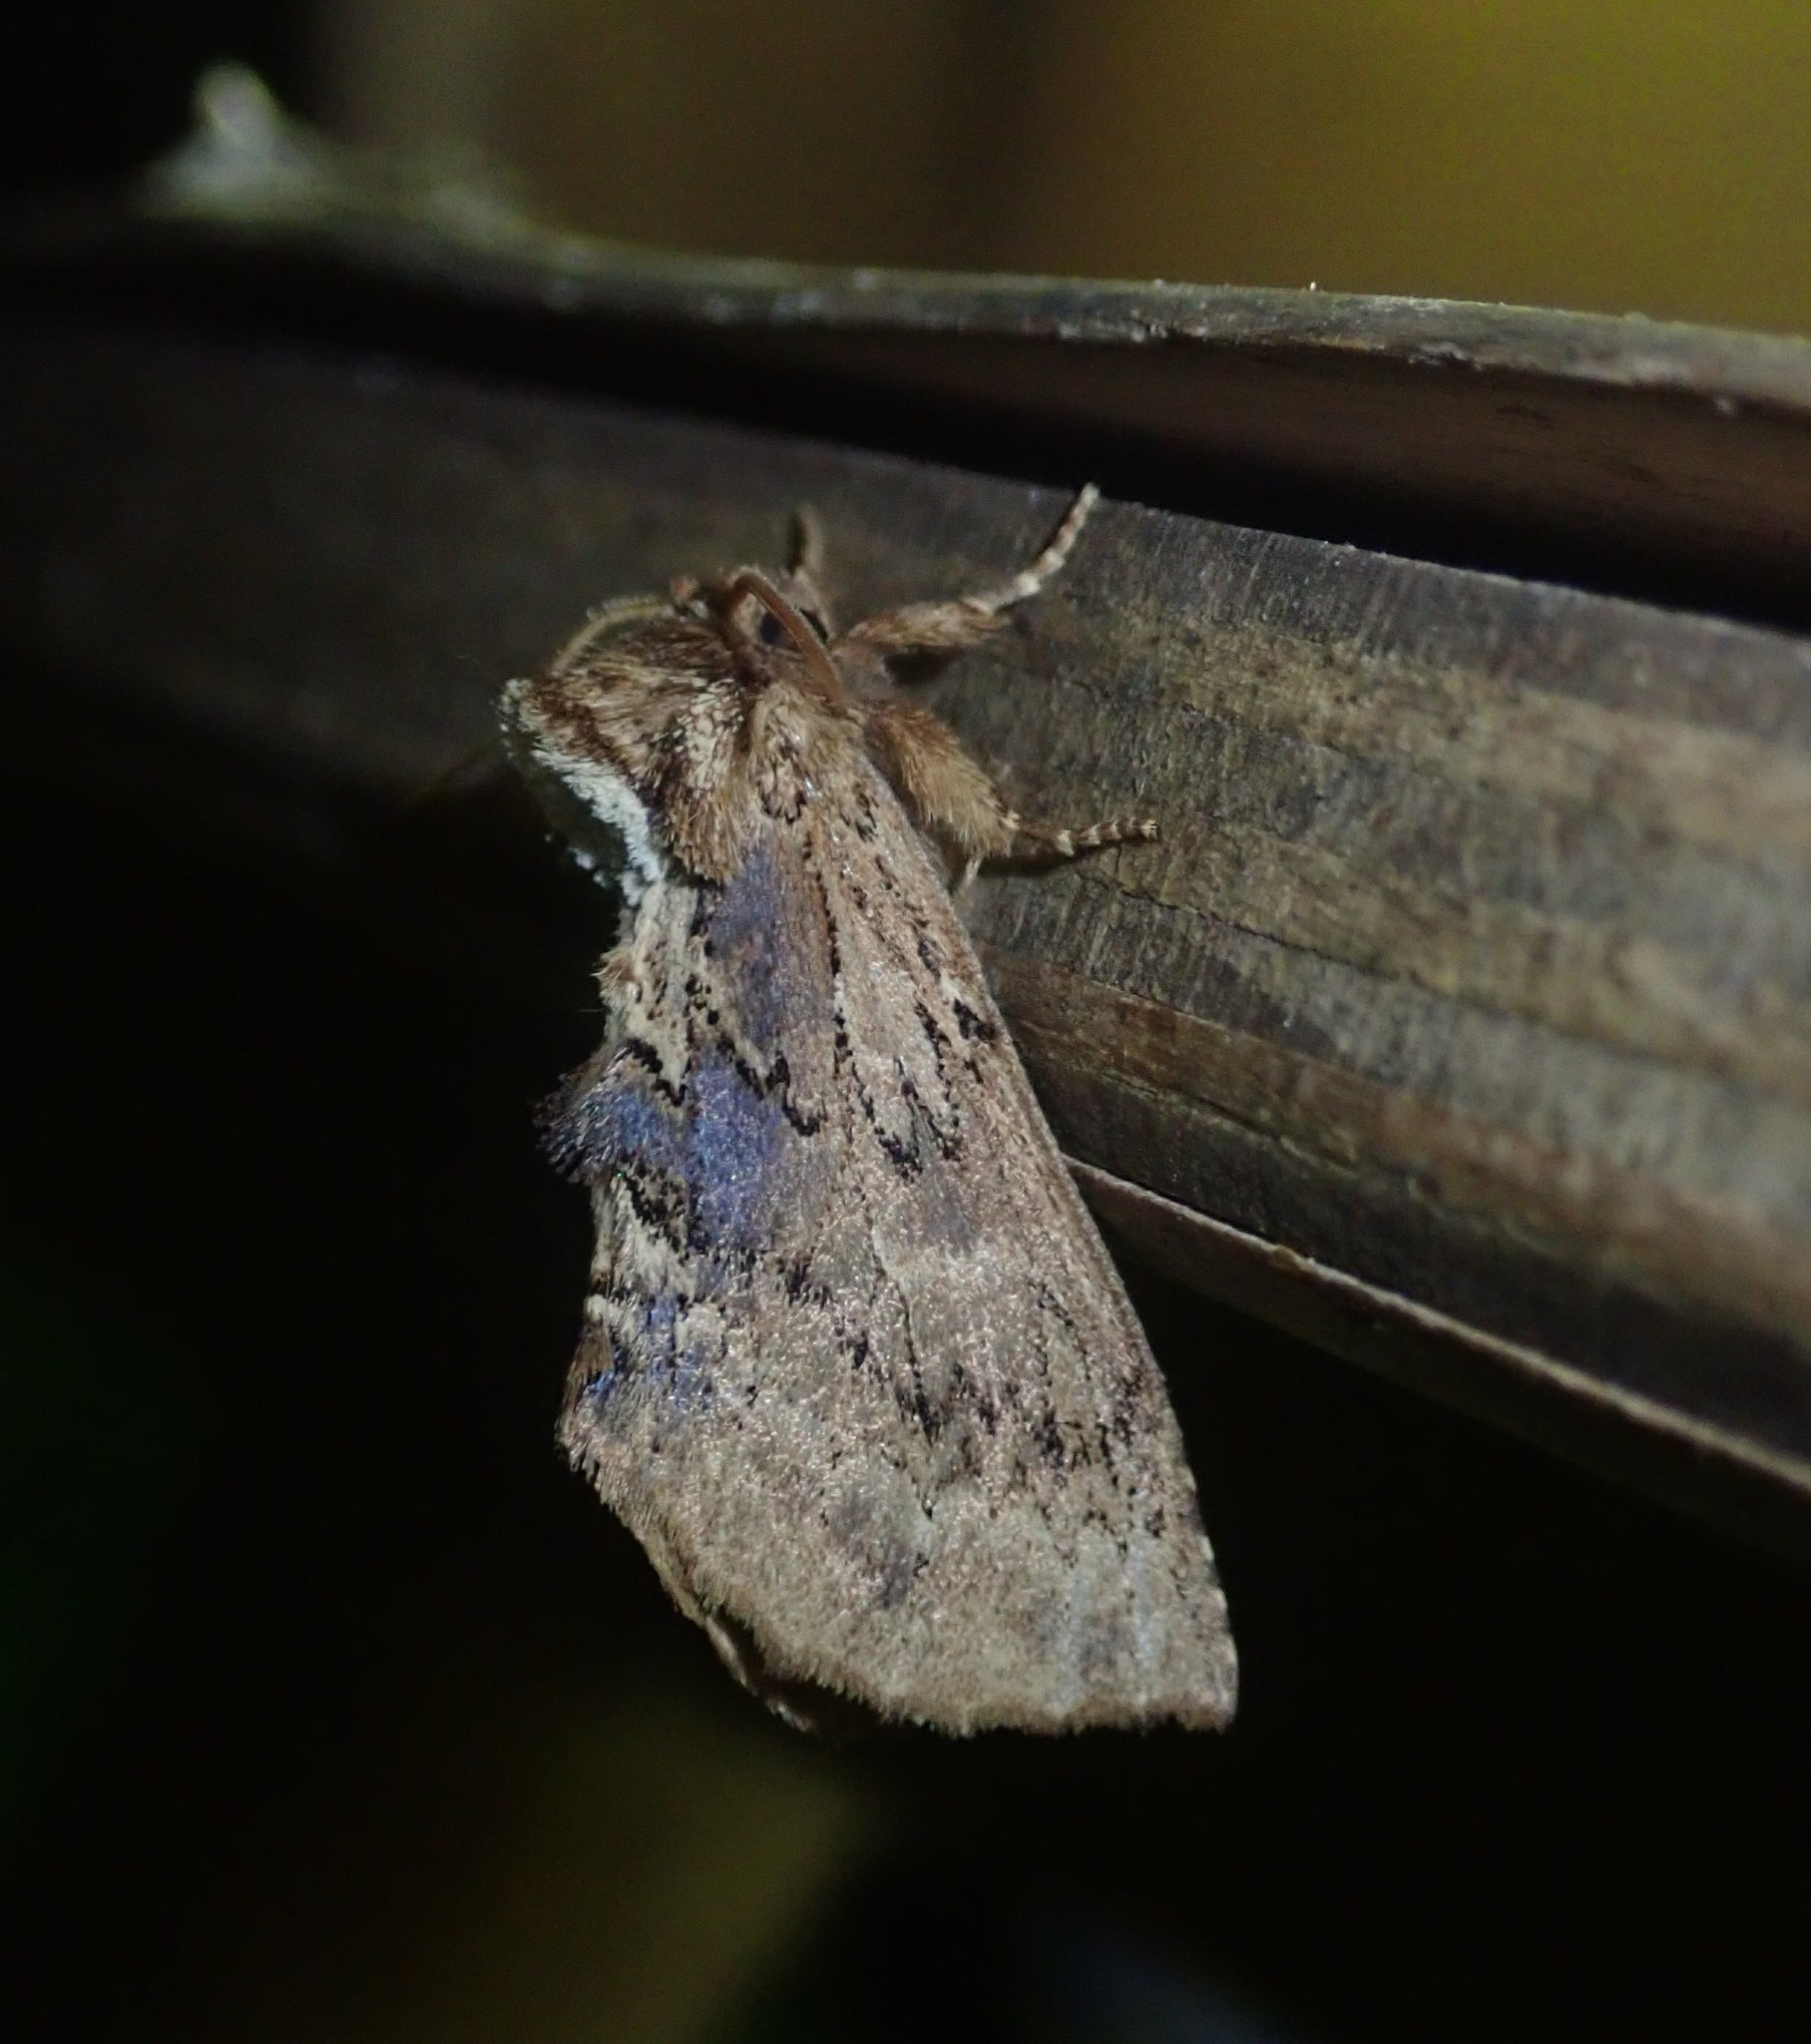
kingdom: Animalia
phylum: Arthropoda
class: Insecta
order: Lepidoptera
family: Notodontidae
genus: Ptilodon
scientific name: Ptilodon capucina
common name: Coxcomb prominent
